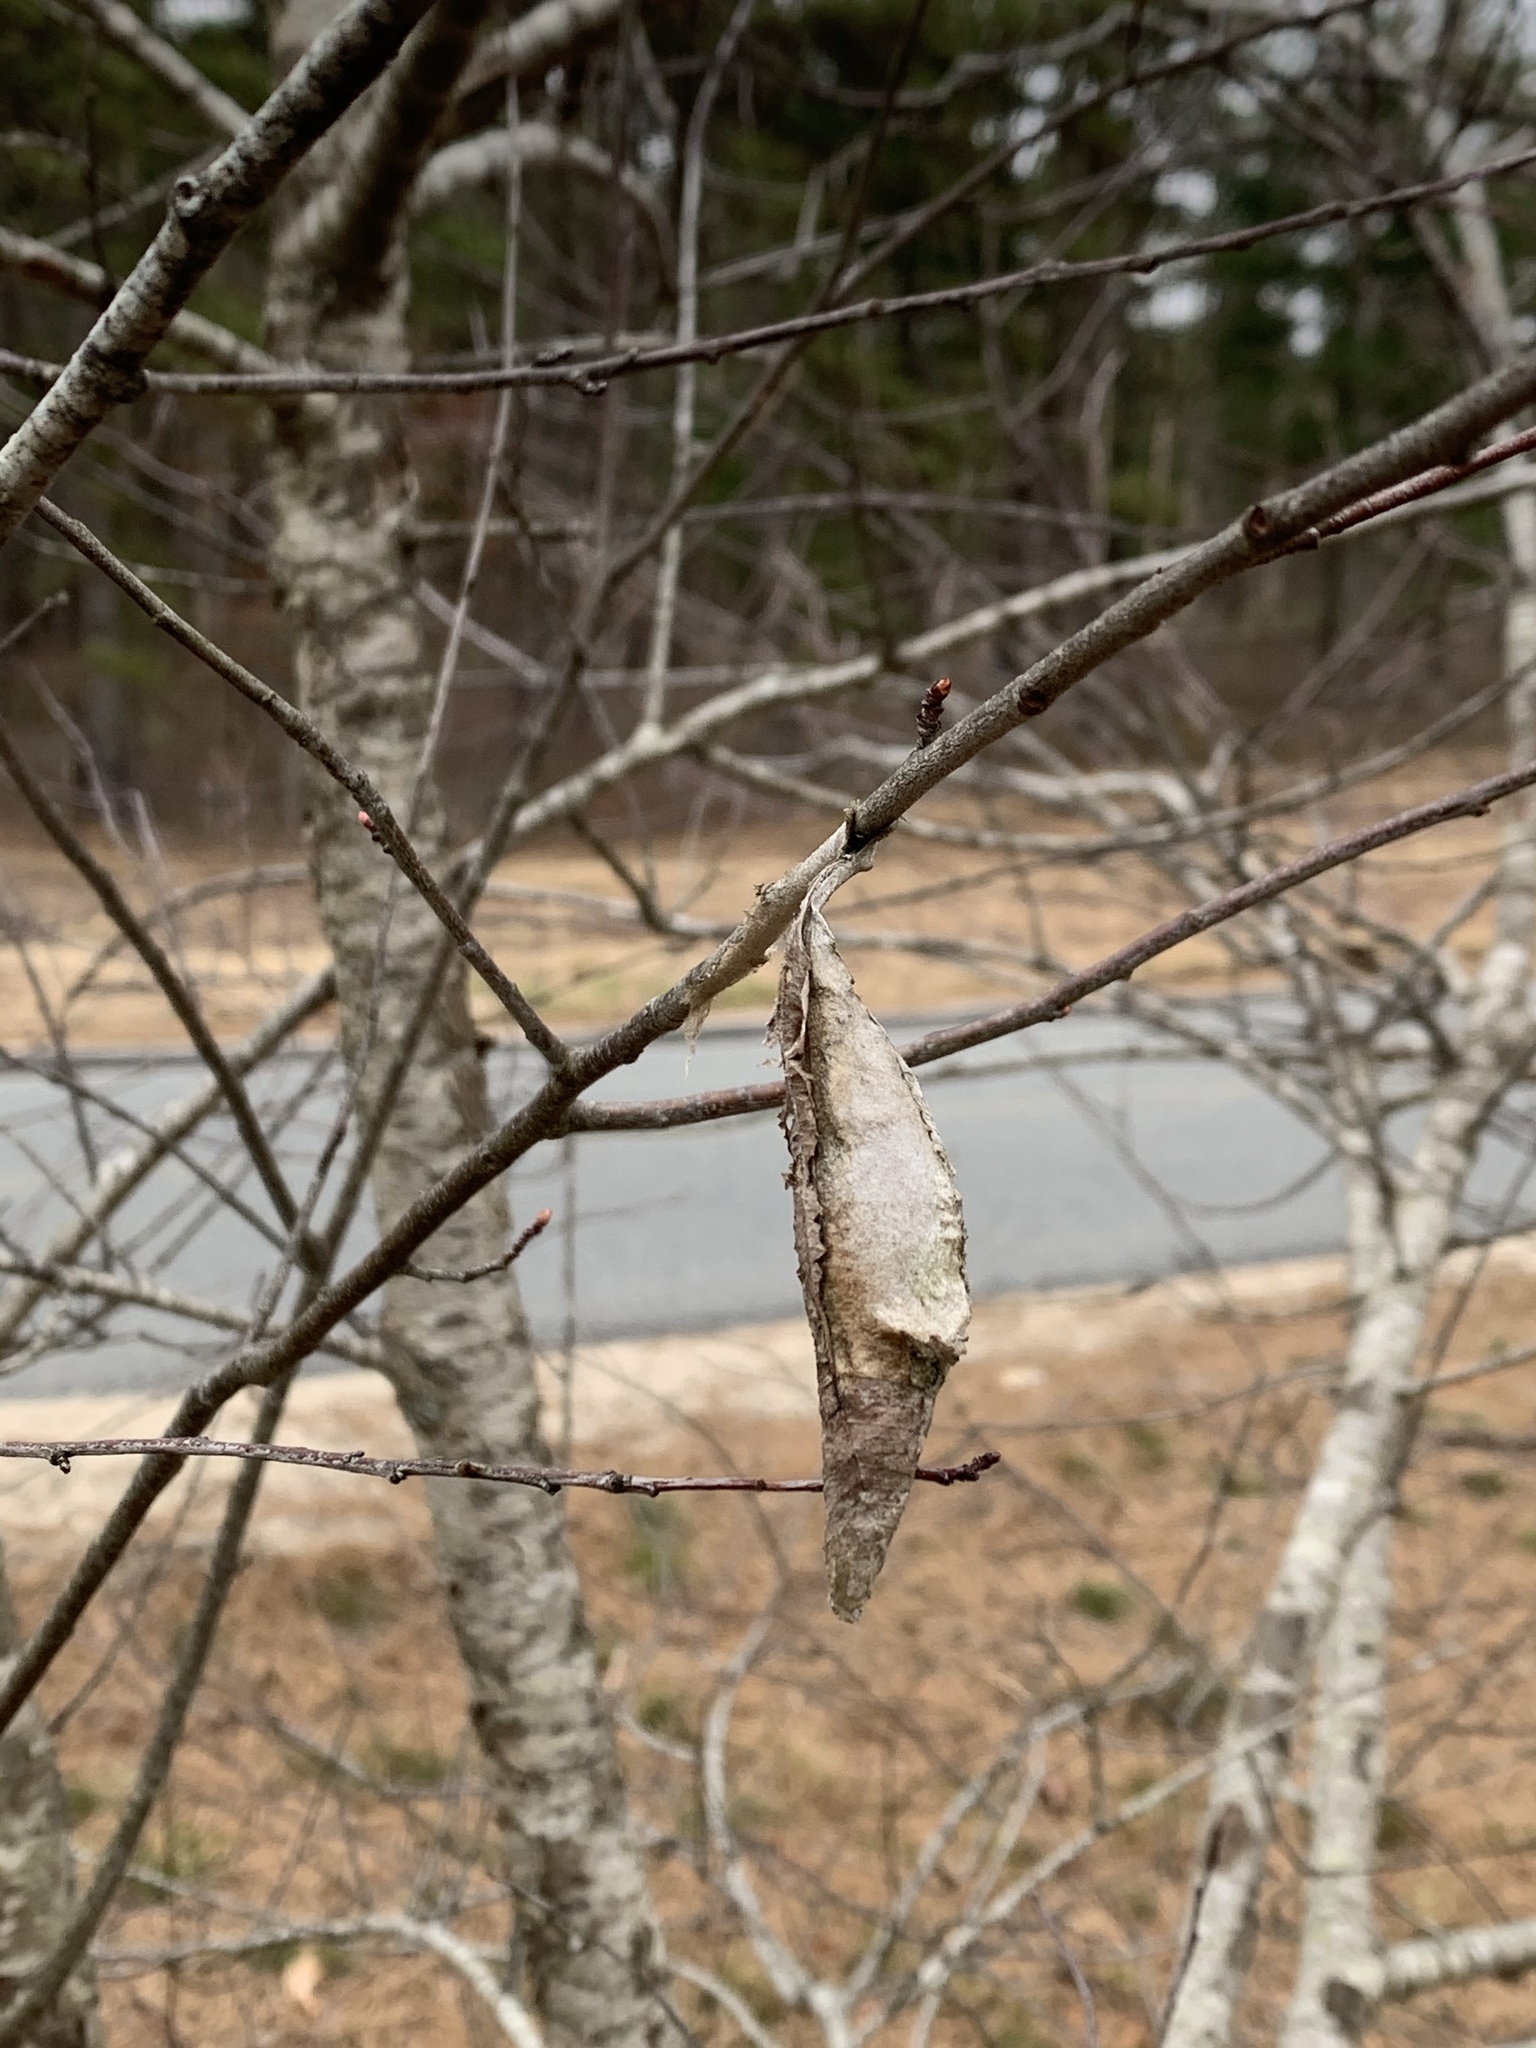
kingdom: Animalia
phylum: Arthropoda
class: Insecta
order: Lepidoptera
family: Saturniidae
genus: Callosamia
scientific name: Callosamia promethea
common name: Promethea silkmoth
